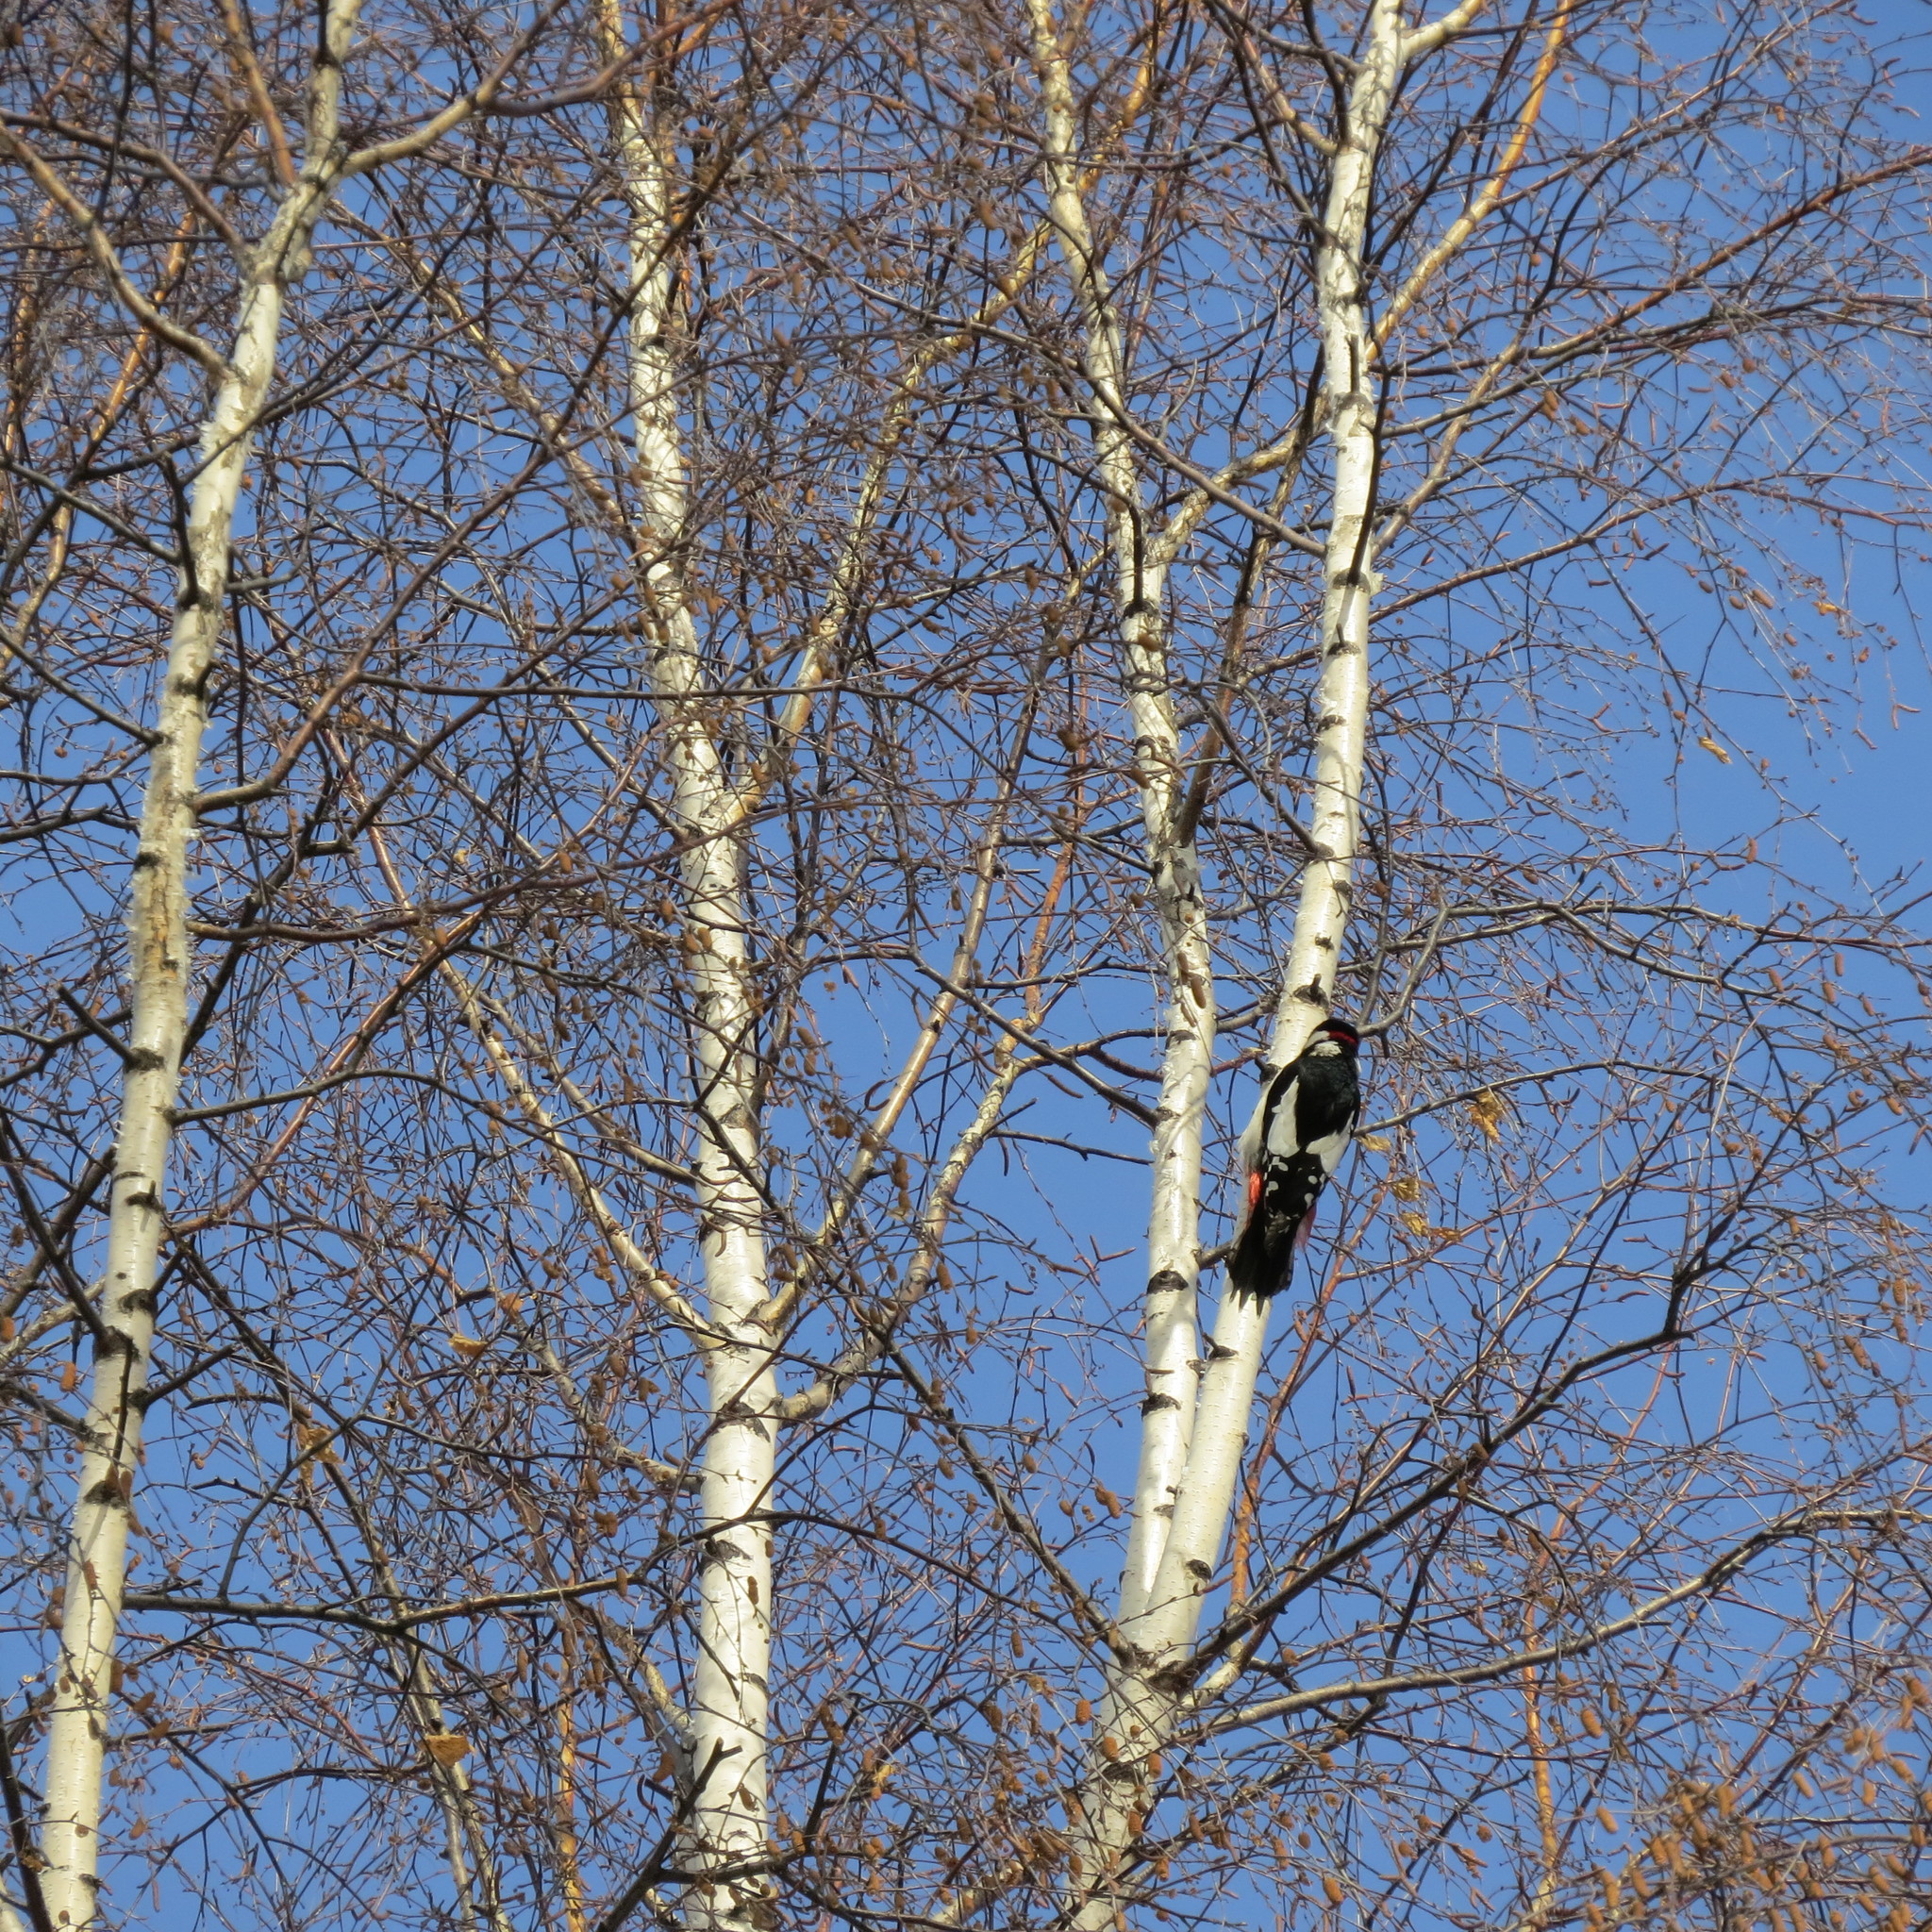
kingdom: Animalia
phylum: Chordata
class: Aves
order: Piciformes
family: Picidae
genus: Dendrocopos
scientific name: Dendrocopos major
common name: Great spotted woodpecker
